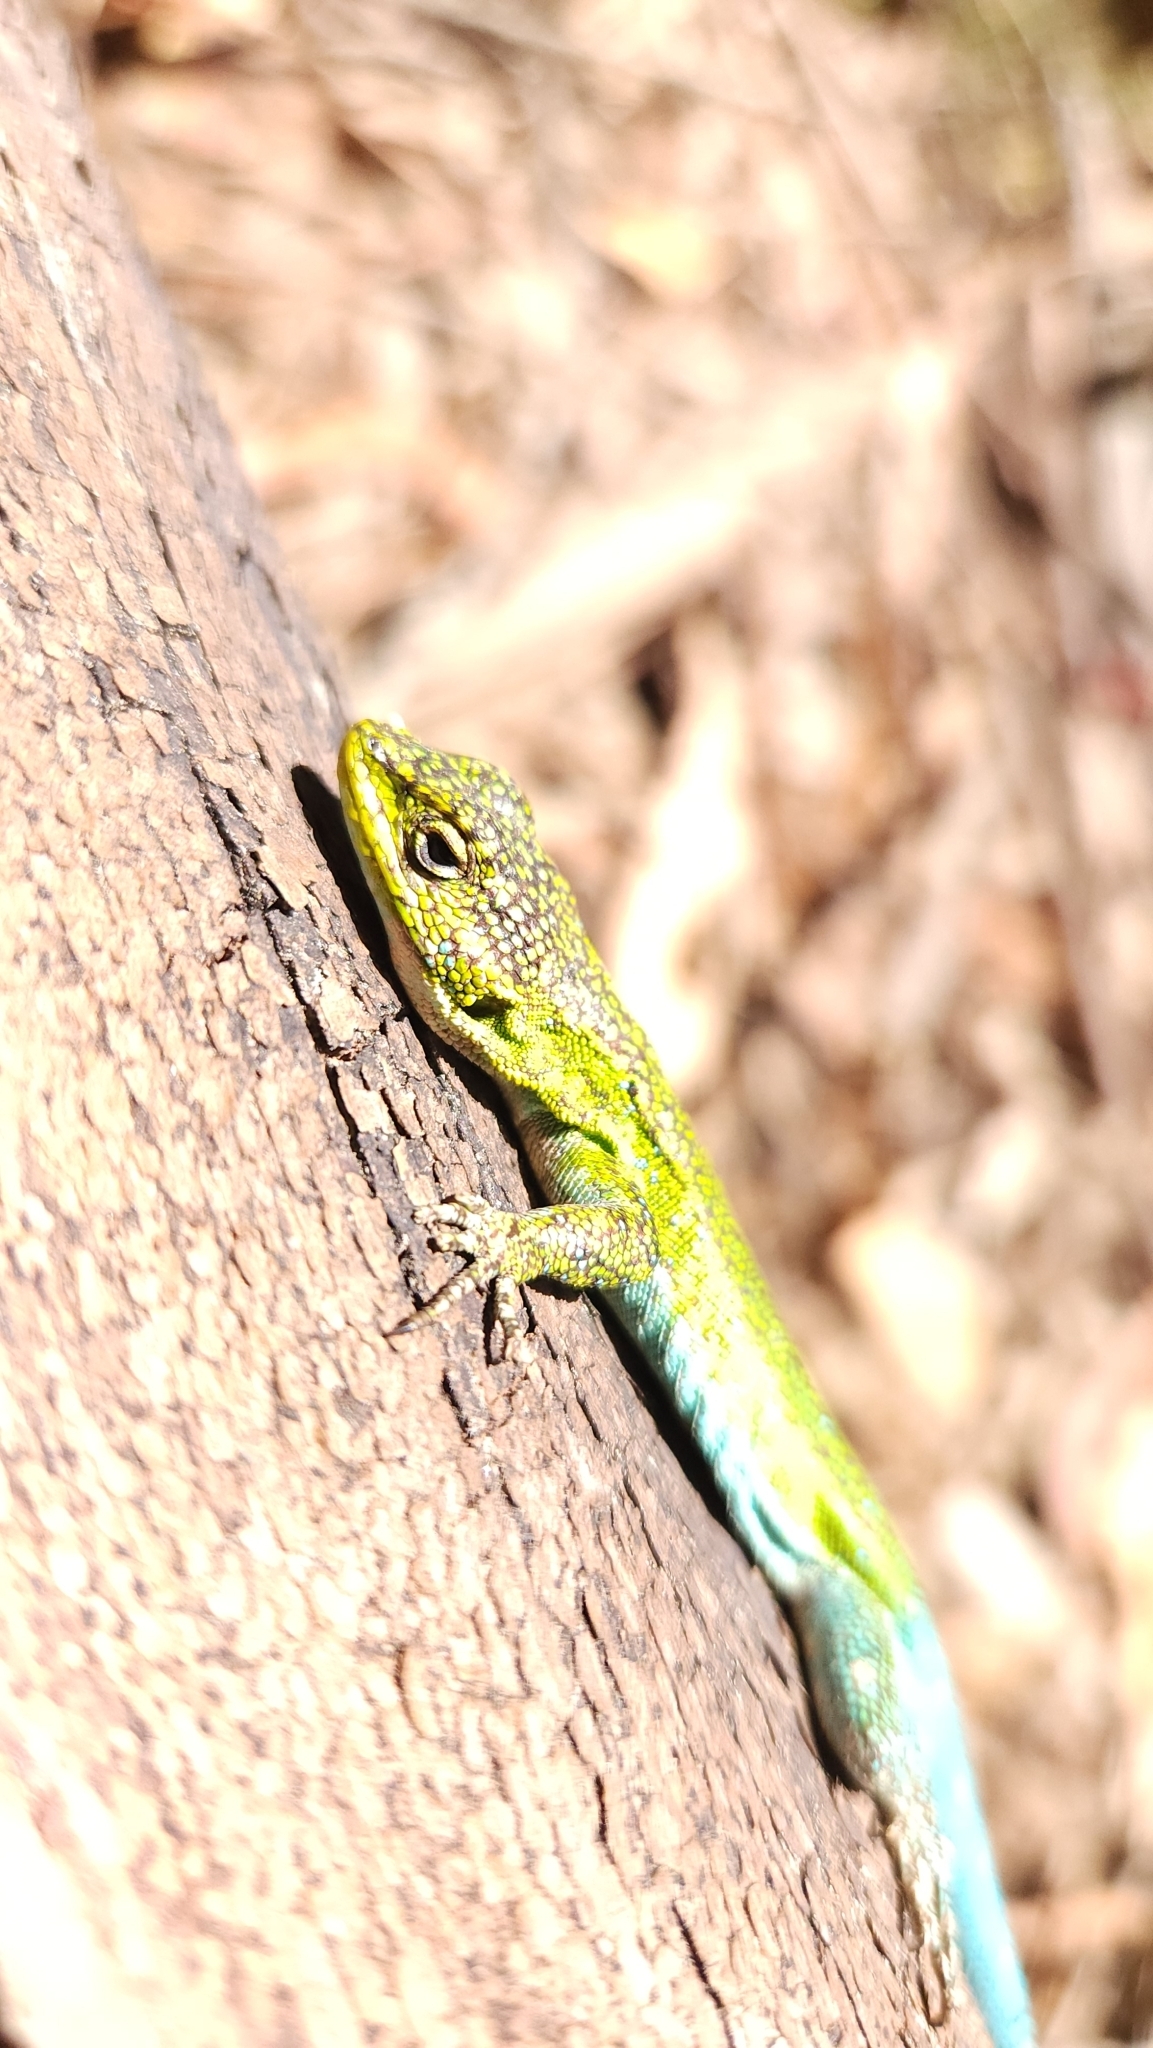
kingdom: Animalia
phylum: Chordata
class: Squamata
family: Liolaemidae
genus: Liolaemus
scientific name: Liolaemus tenuis
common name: Thin tree iguana
